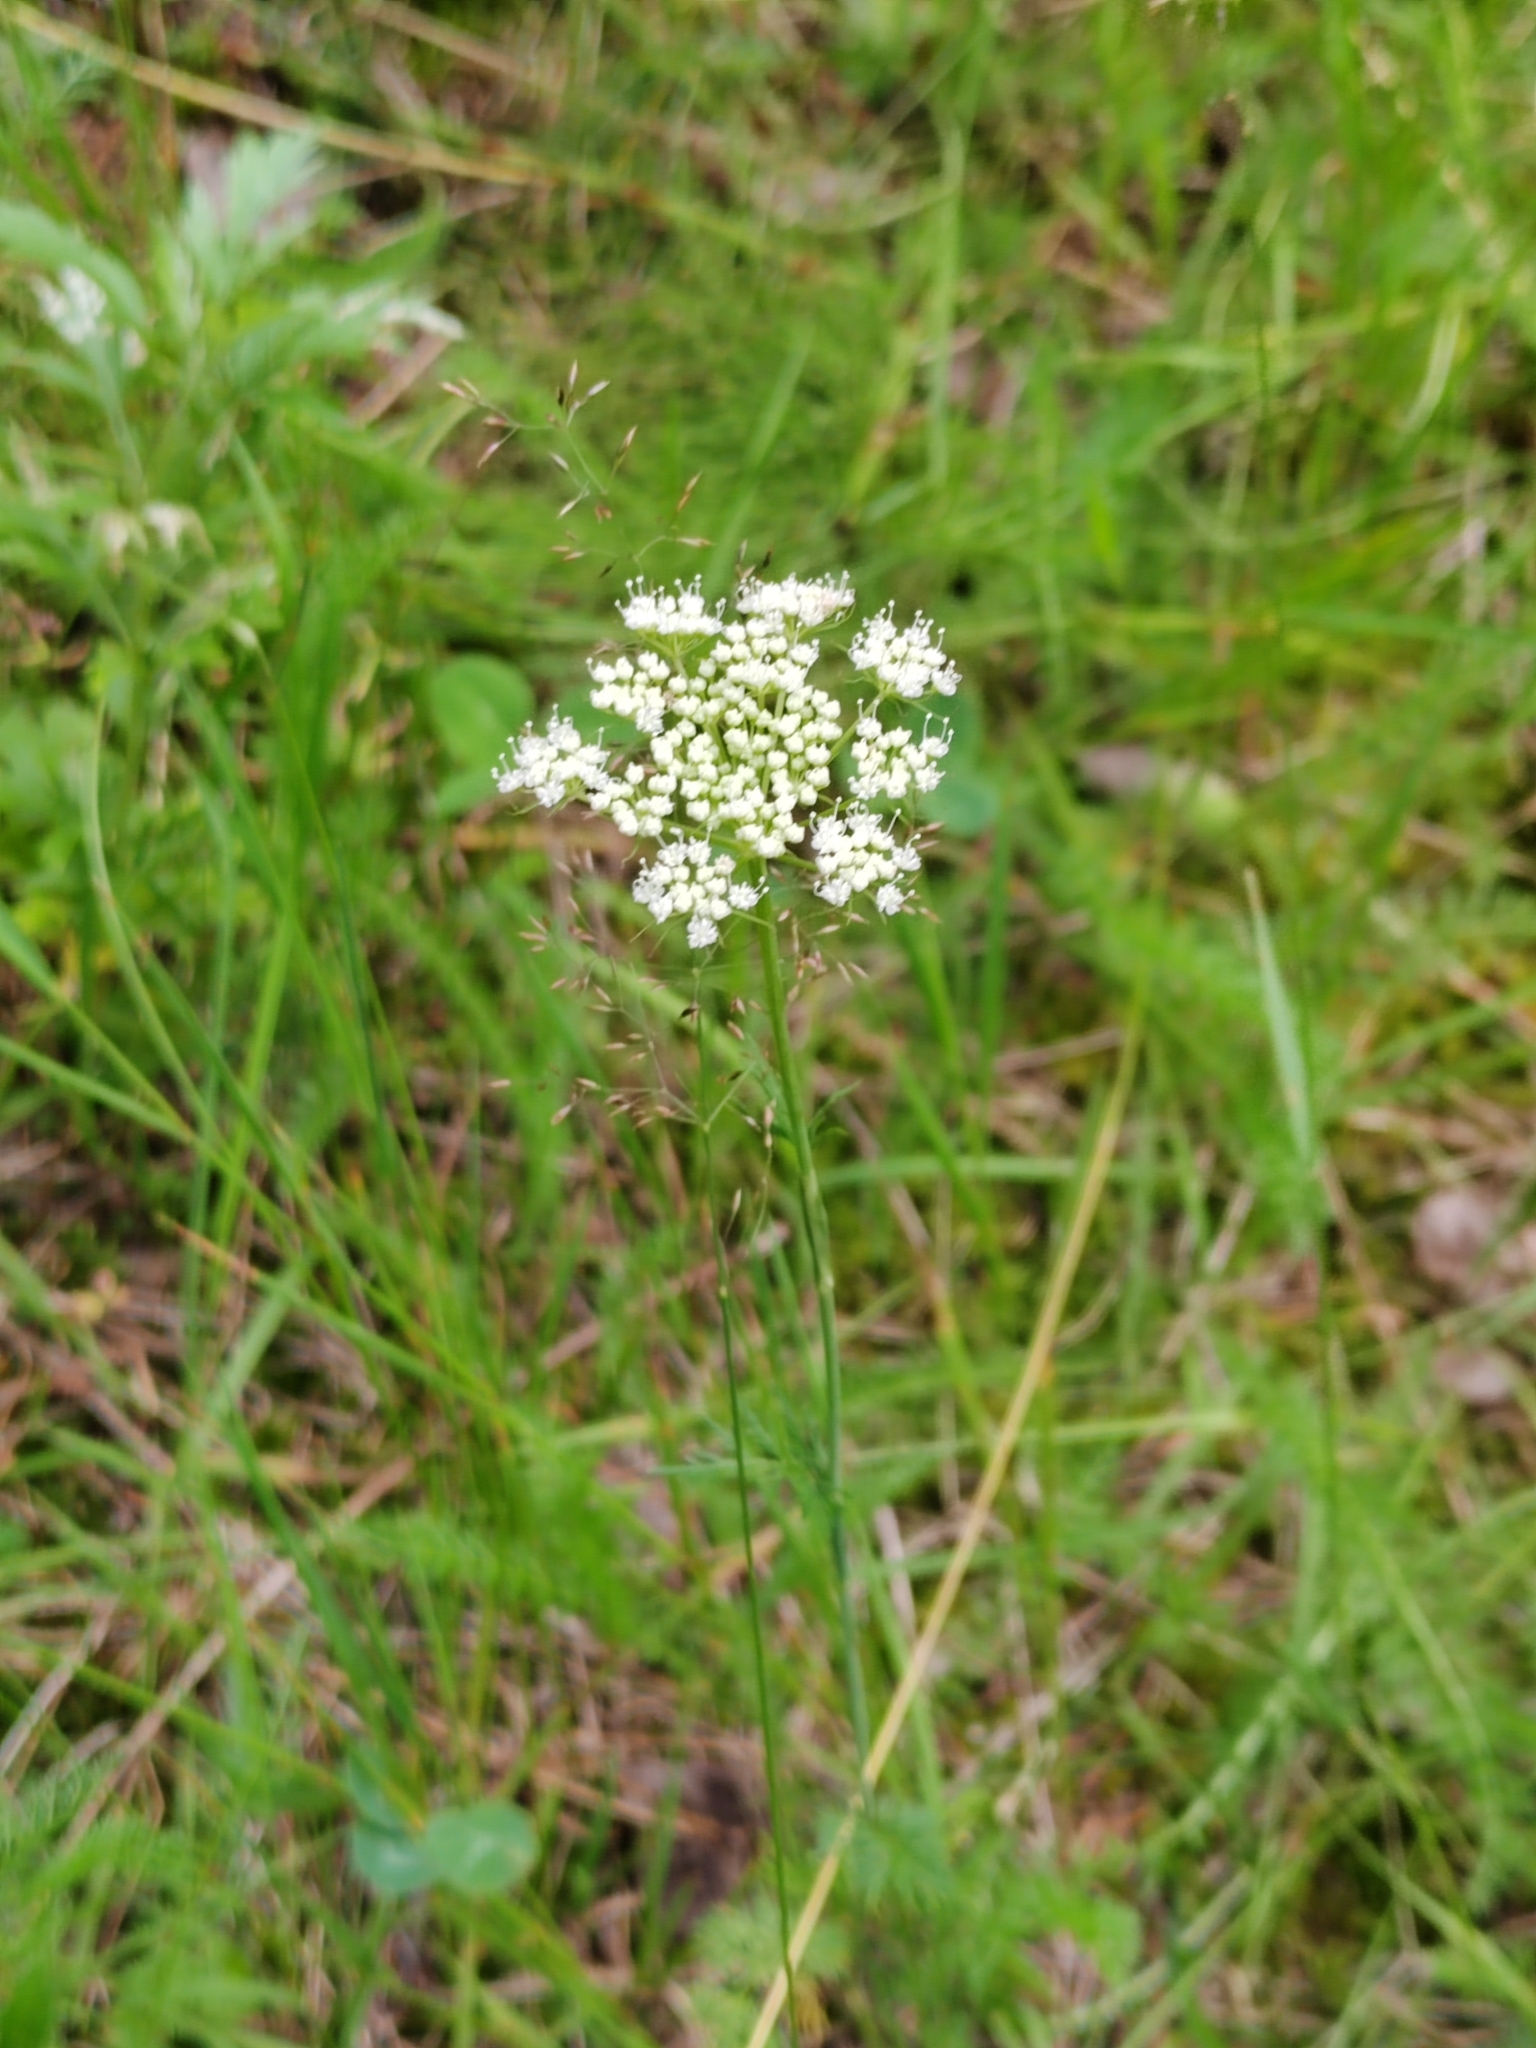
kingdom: Plantae
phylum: Tracheophyta
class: Magnoliopsida
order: Apiales
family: Apiaceae
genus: Carum
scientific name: Carum carvi
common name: Caraway
